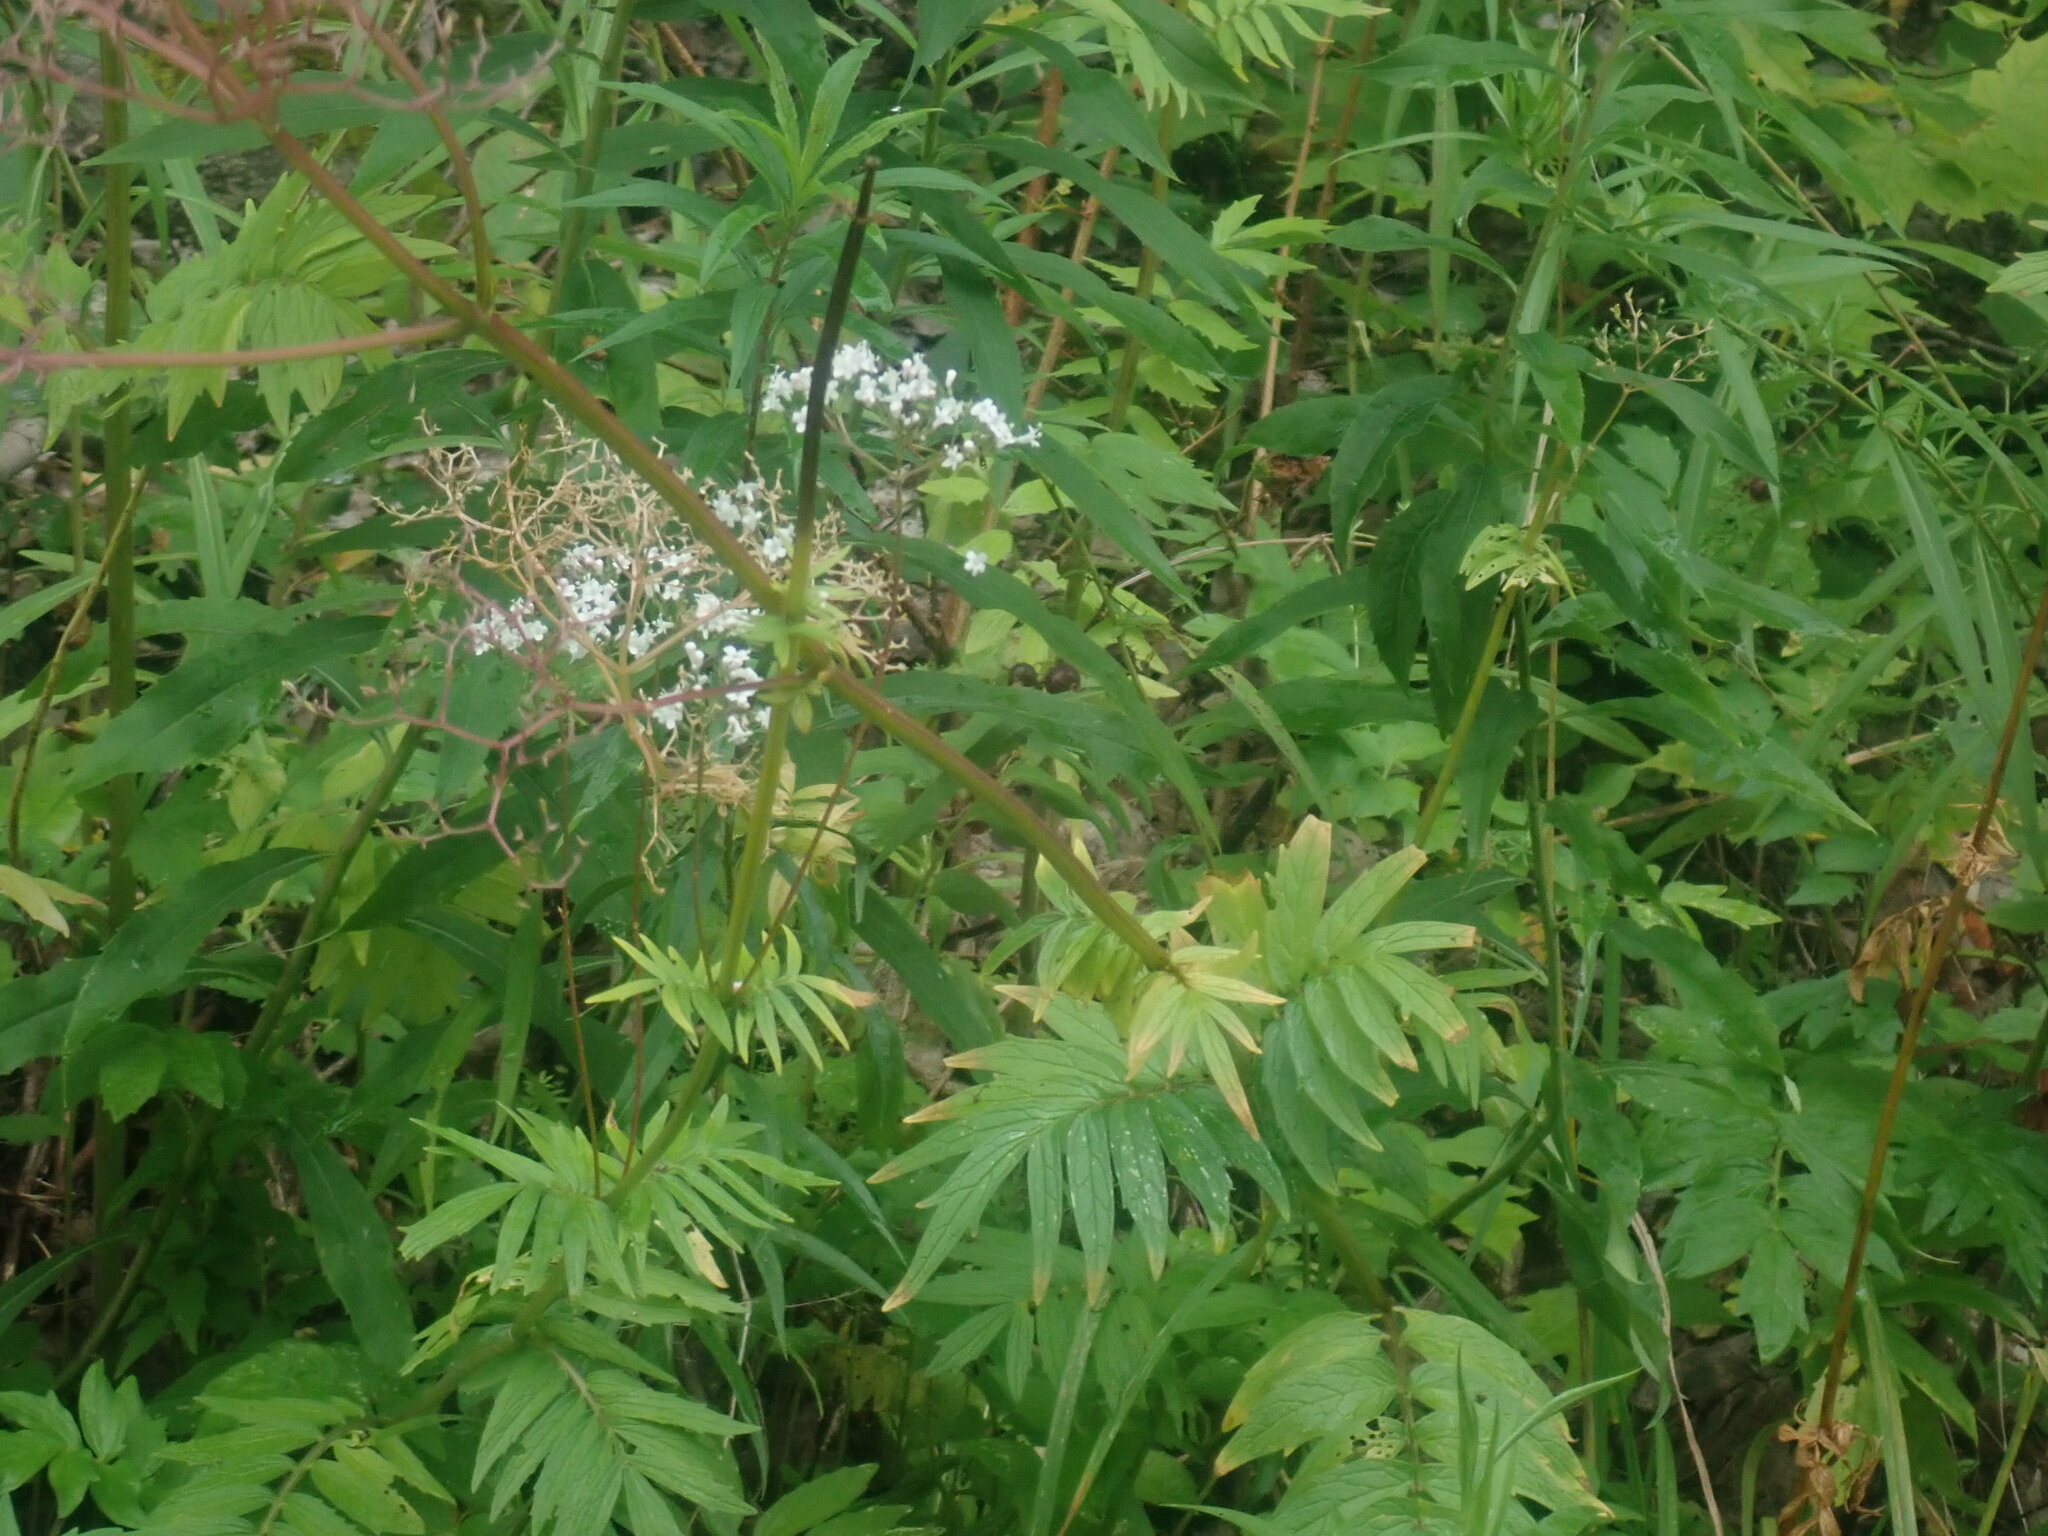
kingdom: Plantae
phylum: Tracheophyta
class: Magnoliopsida
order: Dipsacales
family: Caprifoliaceae
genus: Valeriana
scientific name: Valeriana officinalis
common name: Common valerian
